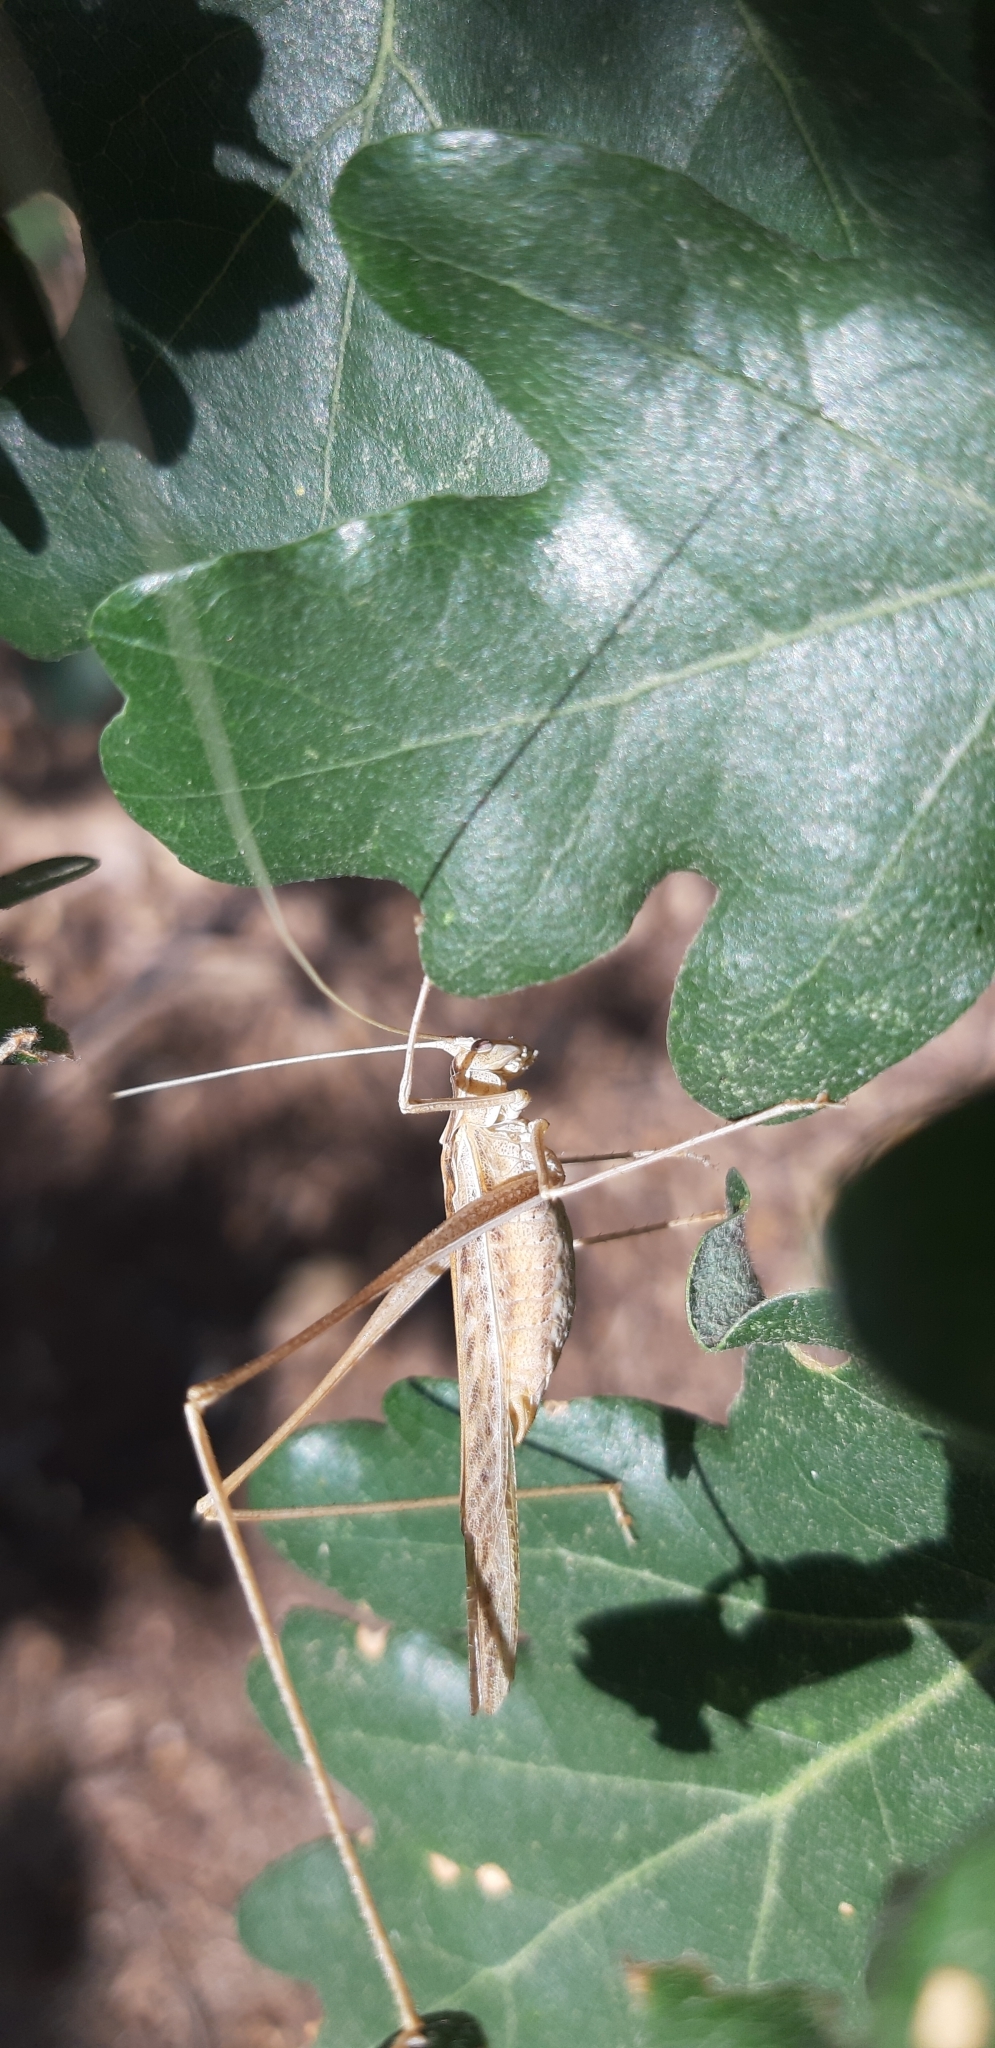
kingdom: Animalia
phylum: Arthropoda
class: Insecta
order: Orthoptera
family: Tettigoniidae
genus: Tylopsis
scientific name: Tylopsis lilifolia
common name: Lily bush-cricket
